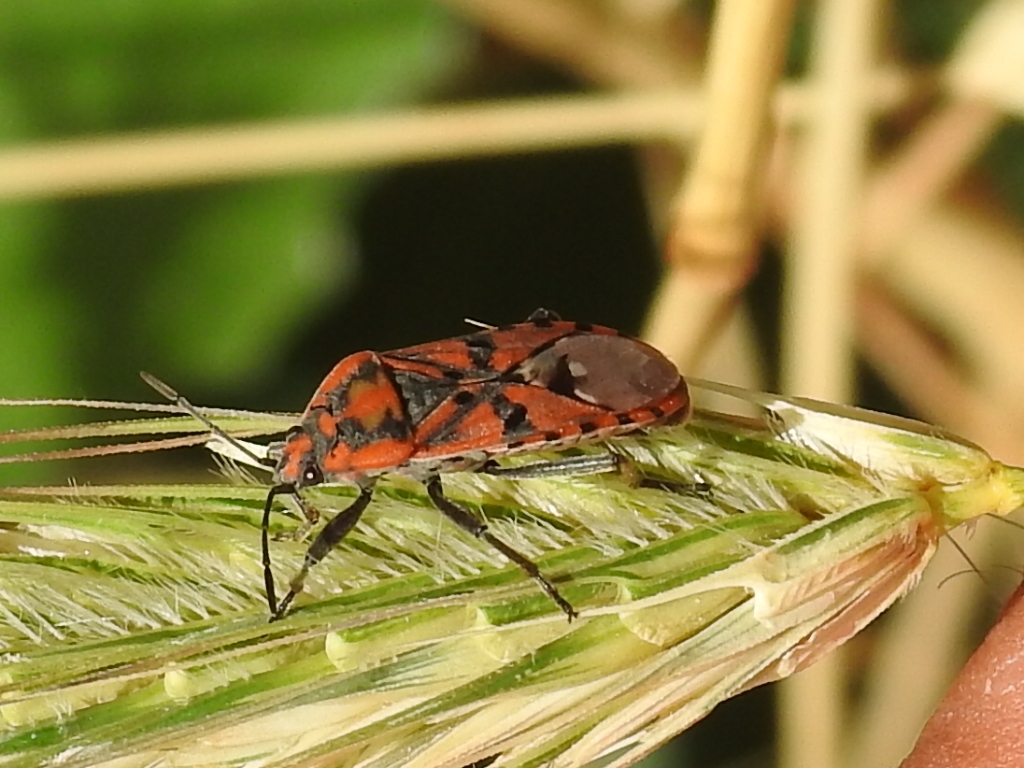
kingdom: Animalia
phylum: Arthropoda
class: Insecta
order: Hemiptera
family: Lygaeidae
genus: Spilostethus
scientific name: Spilostethus pandurus
